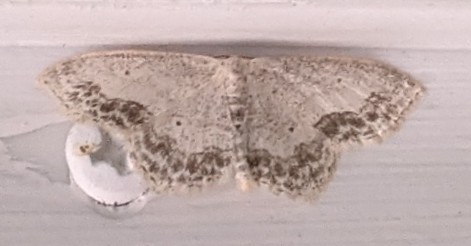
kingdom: Animalia
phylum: Arthropoda
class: Insecta
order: Lepidoptera
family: Geometridae
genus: Scopula
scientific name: Scopula limboundata
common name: Large lace border
